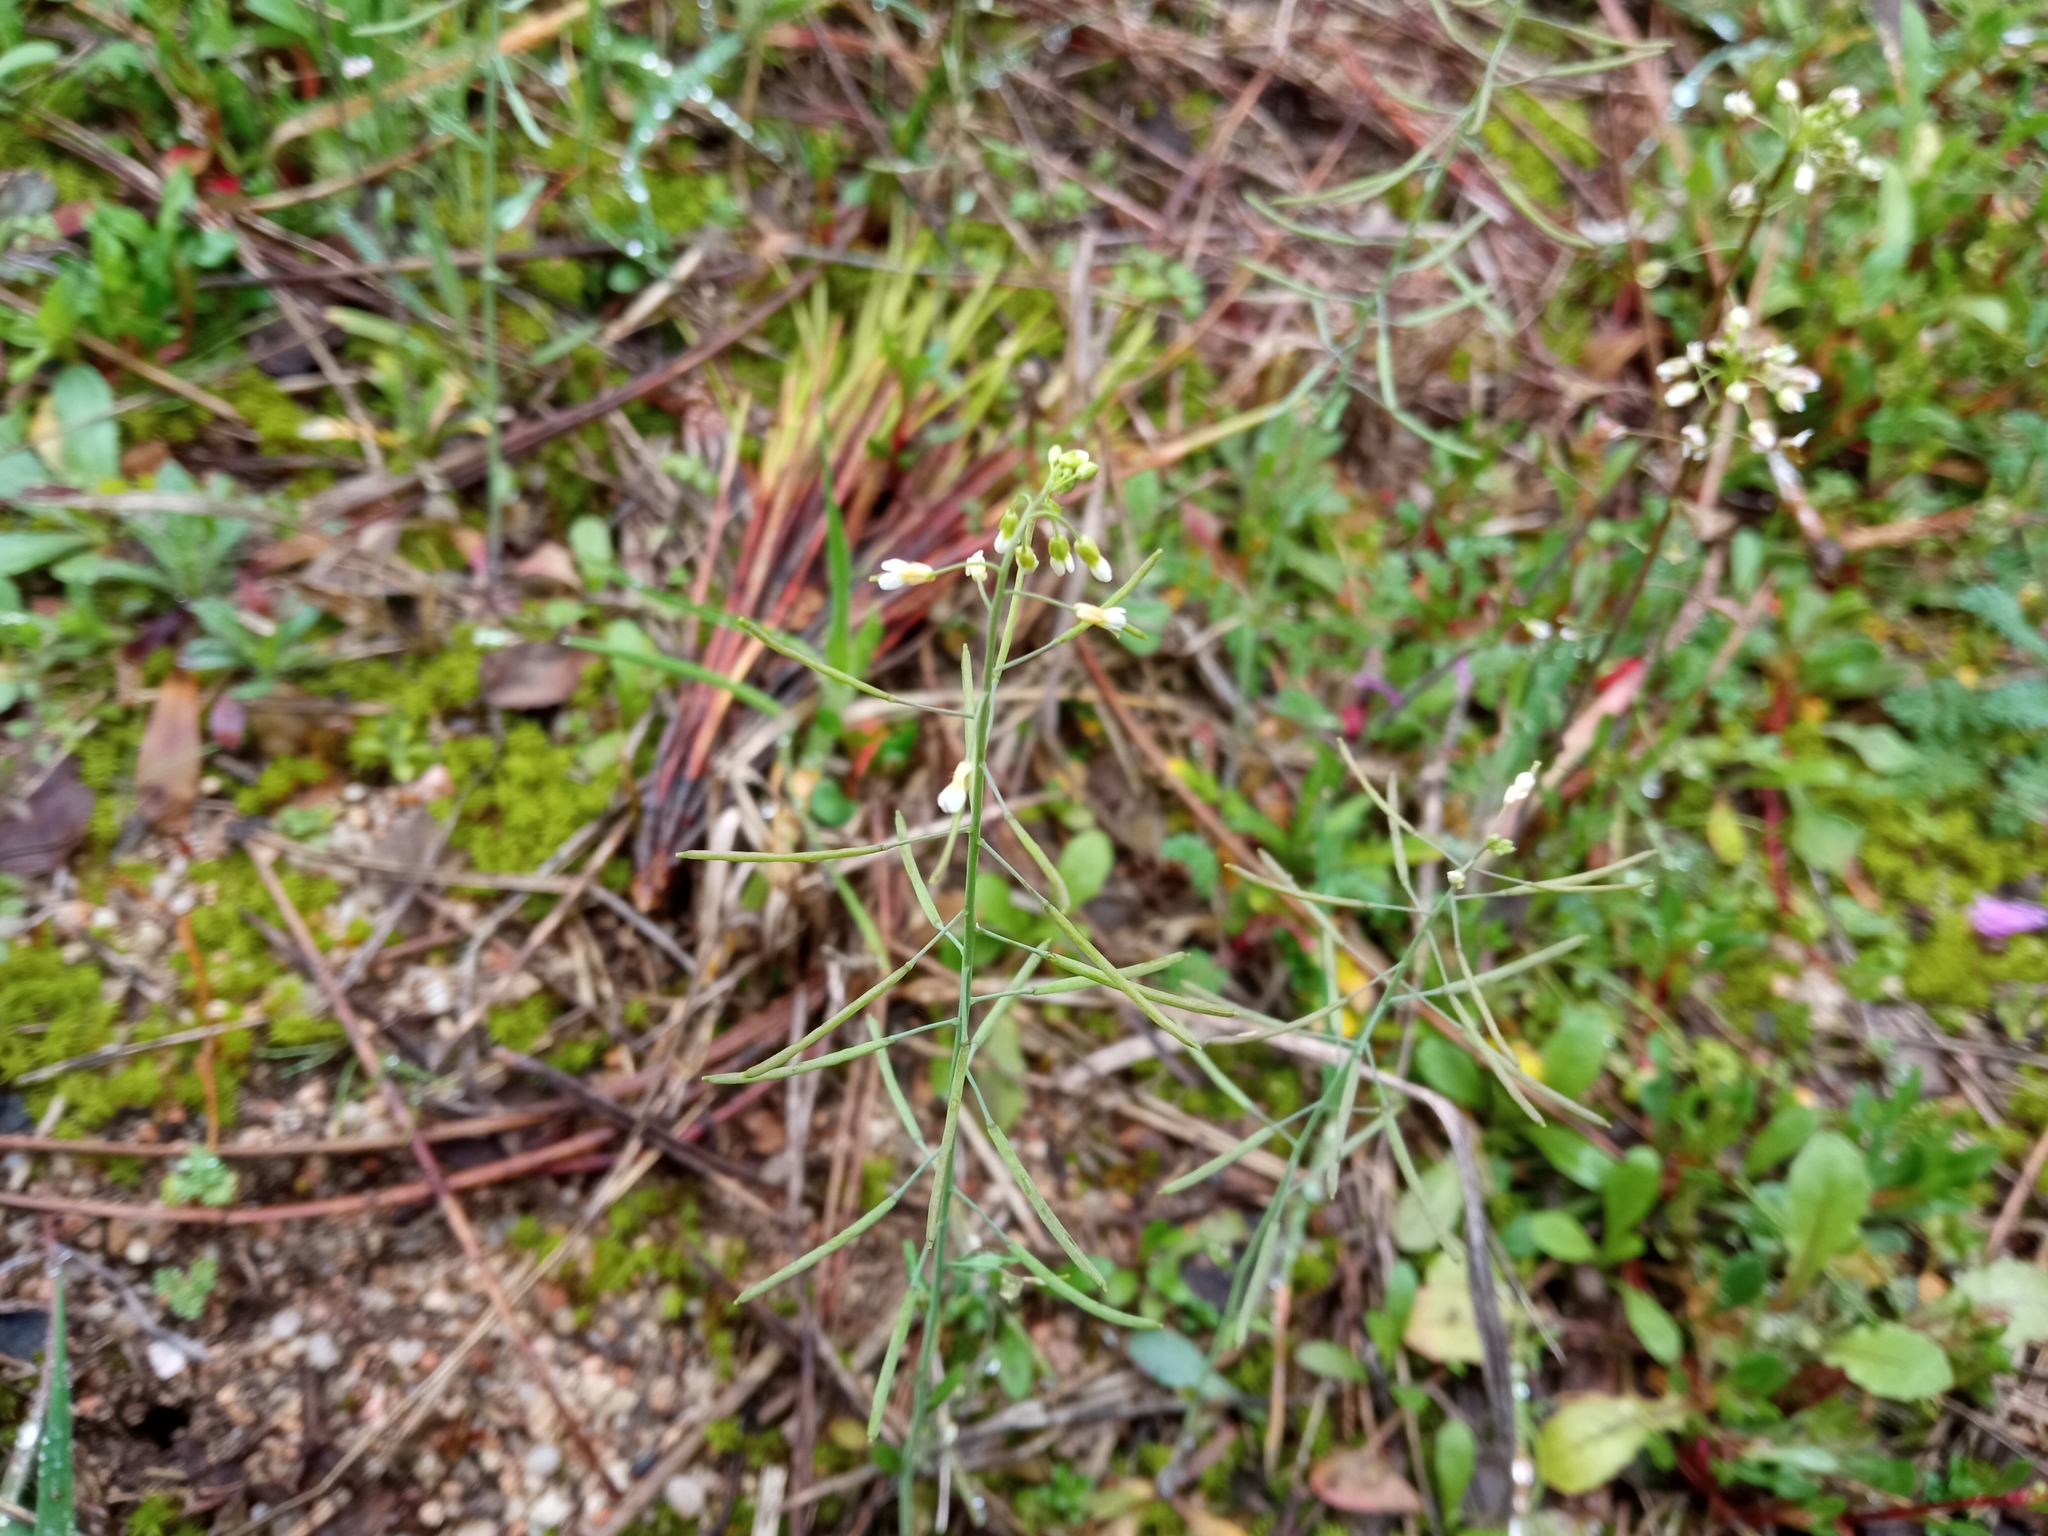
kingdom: Plantae
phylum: Tracheophyta
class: Magnoliopsida
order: Brassicales
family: Brassicaceae
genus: Arabidopsis
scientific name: Arabidopsis thaliana
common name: Thale cress
